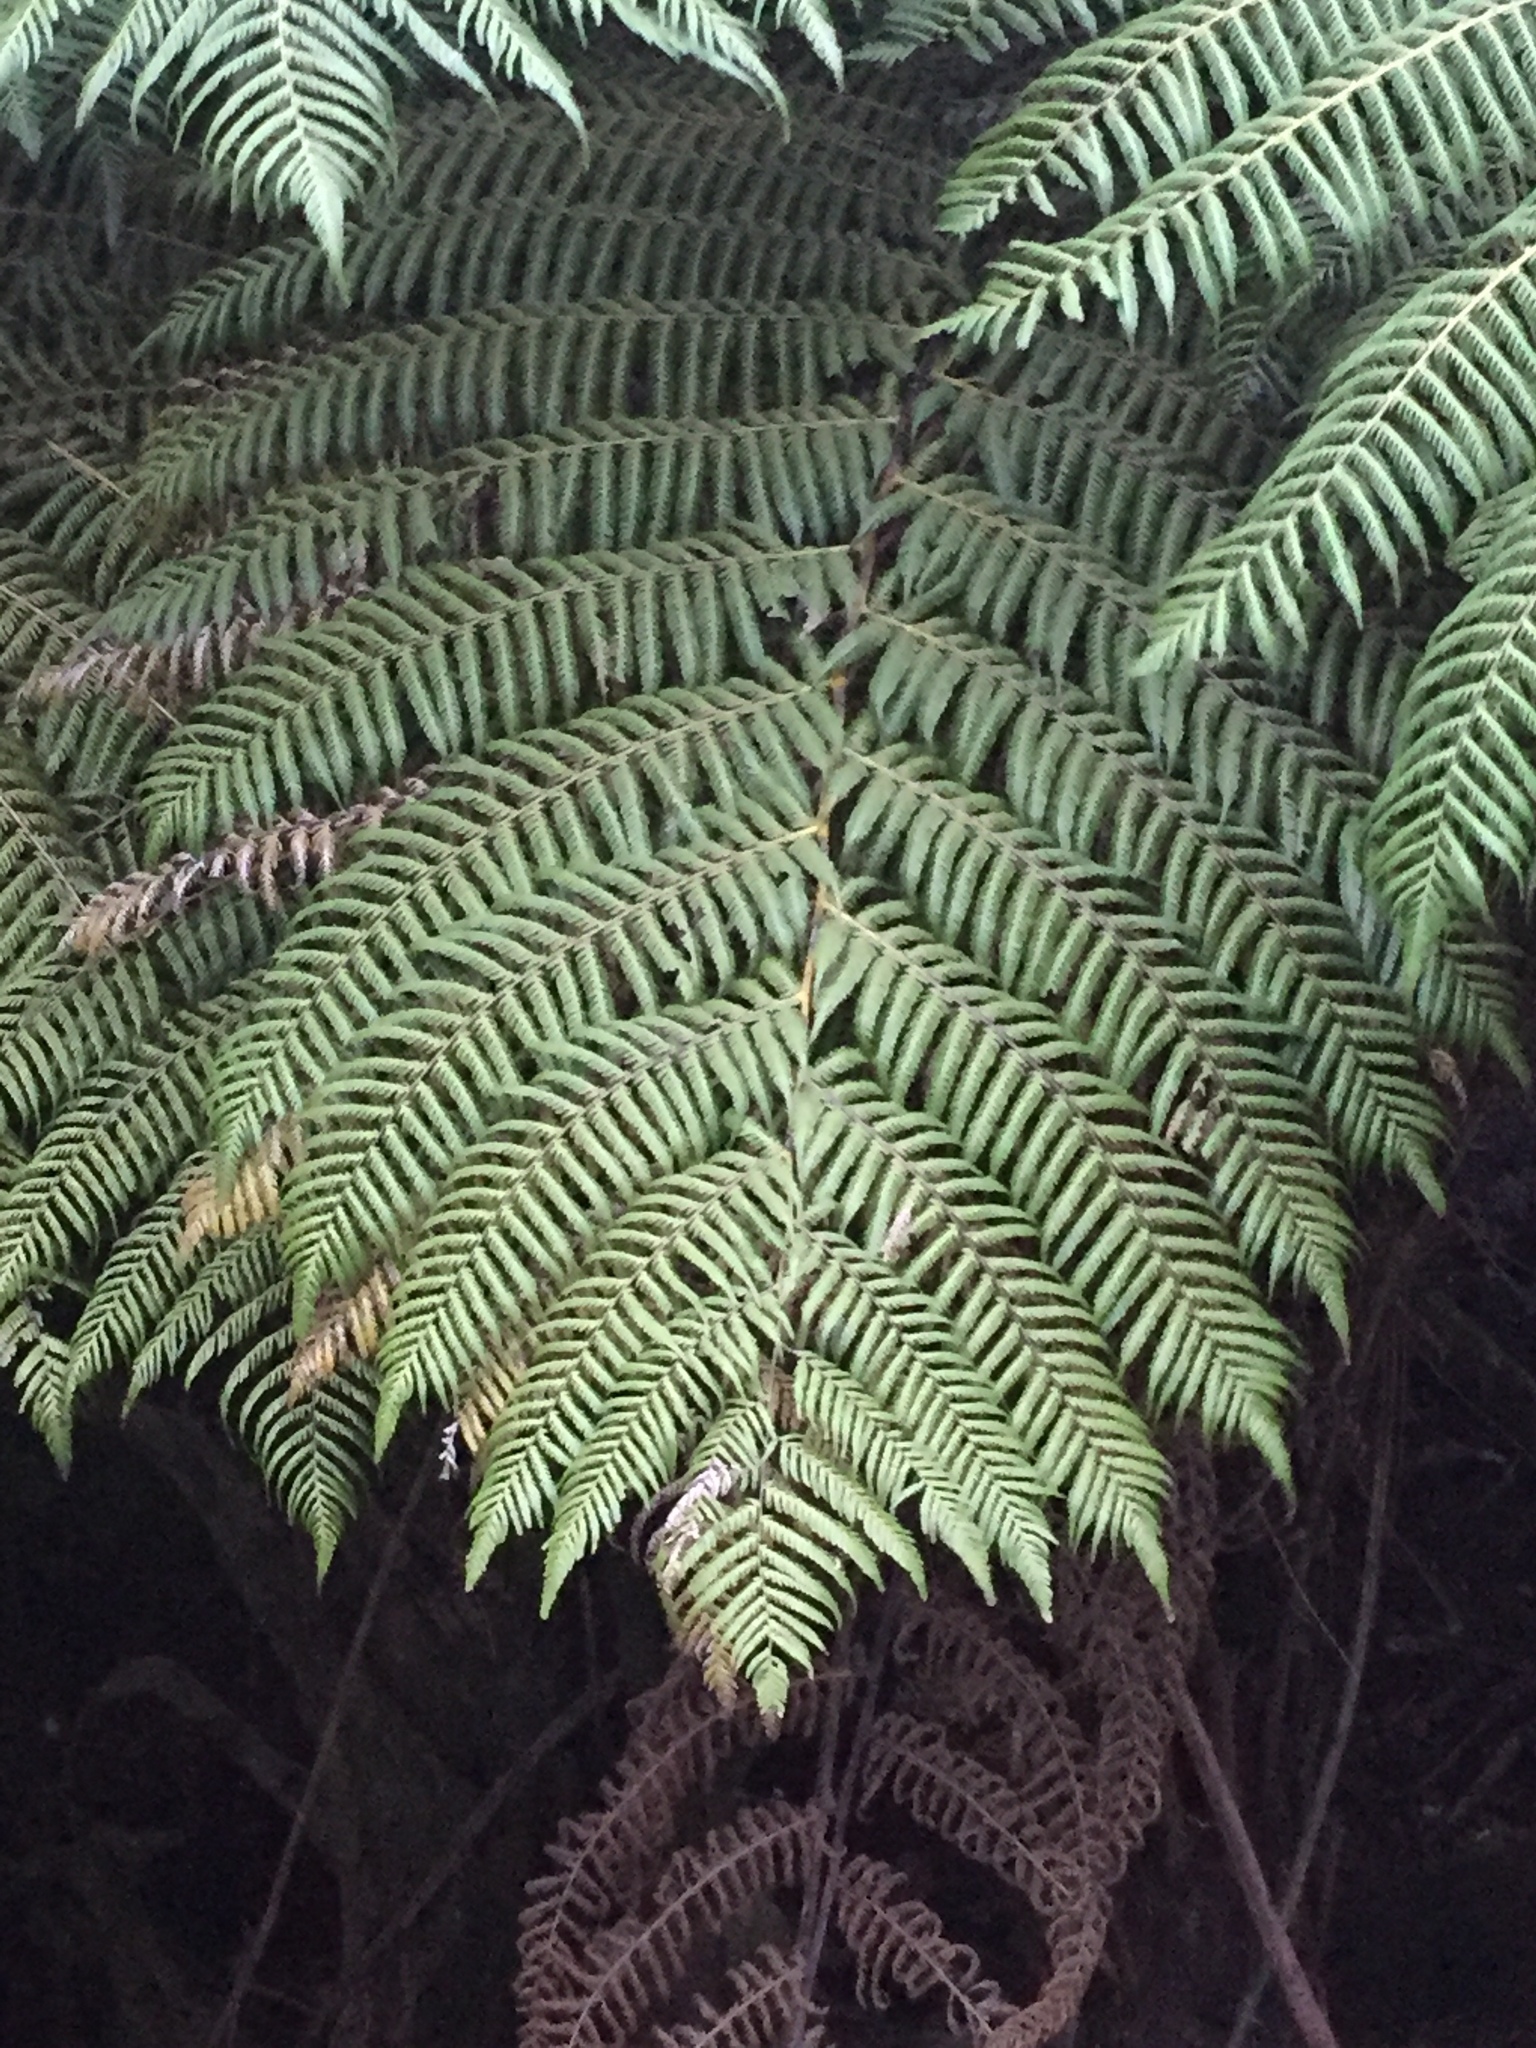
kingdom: Plantae
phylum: Tracheophyta
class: Polypodiopsida
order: Cyatheales
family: Cyatheaceae
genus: Alsophila
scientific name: Alsophila dealbata
